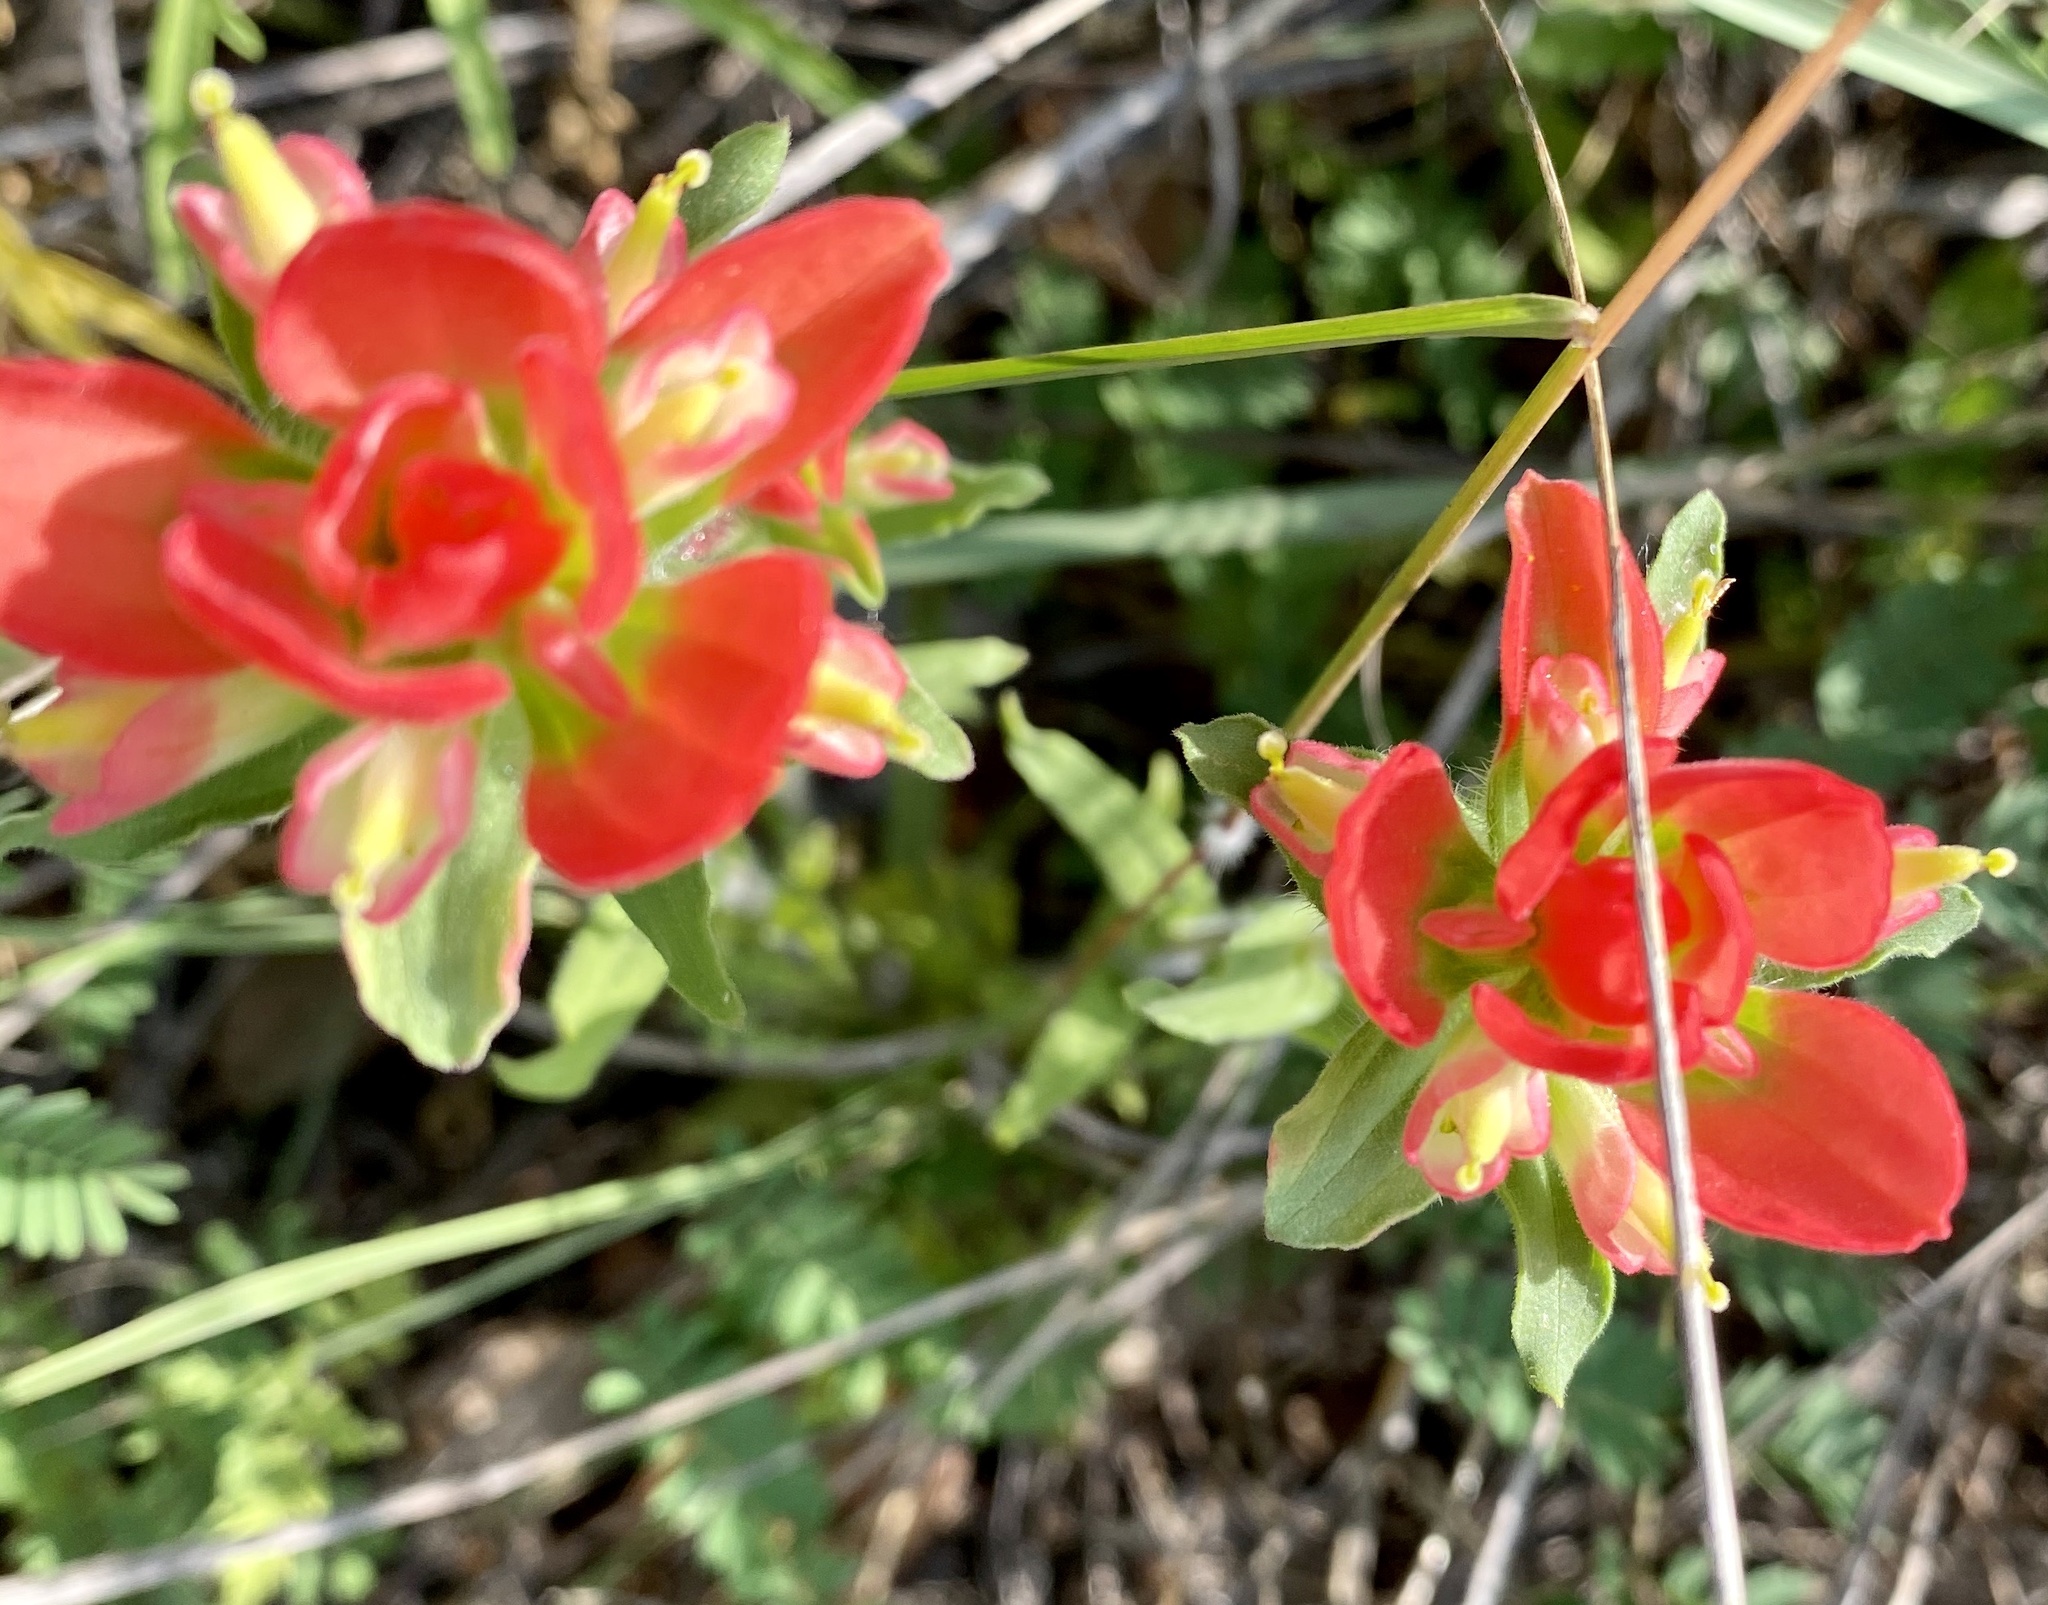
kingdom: Plantae
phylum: Tracheophyta
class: Magnoliopsida
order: Lamiales
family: Orobanchaceae
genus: Castilleja
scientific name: Castilleja indivisa
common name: Texas paintbrush
